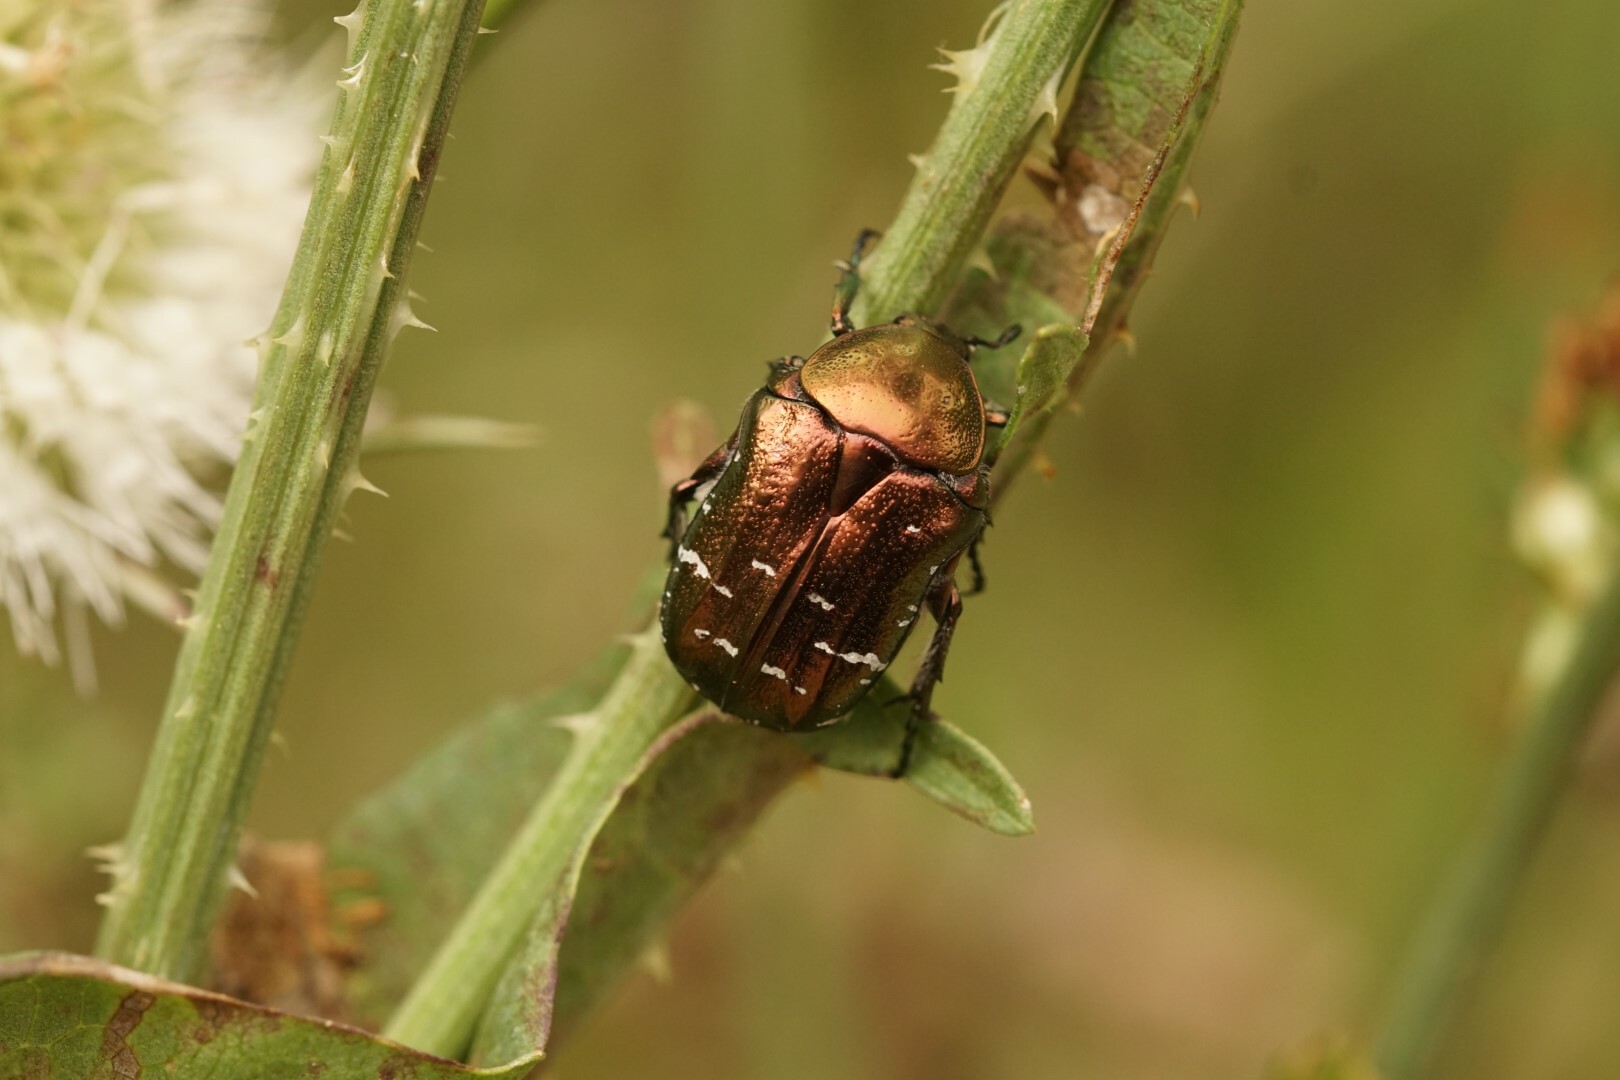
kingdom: Animalia
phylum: Arthropoda
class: Insecta
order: Coleoptera
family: Scarabaeidae
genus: Cetonia
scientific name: Cetonia aurata
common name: Rose chafer
